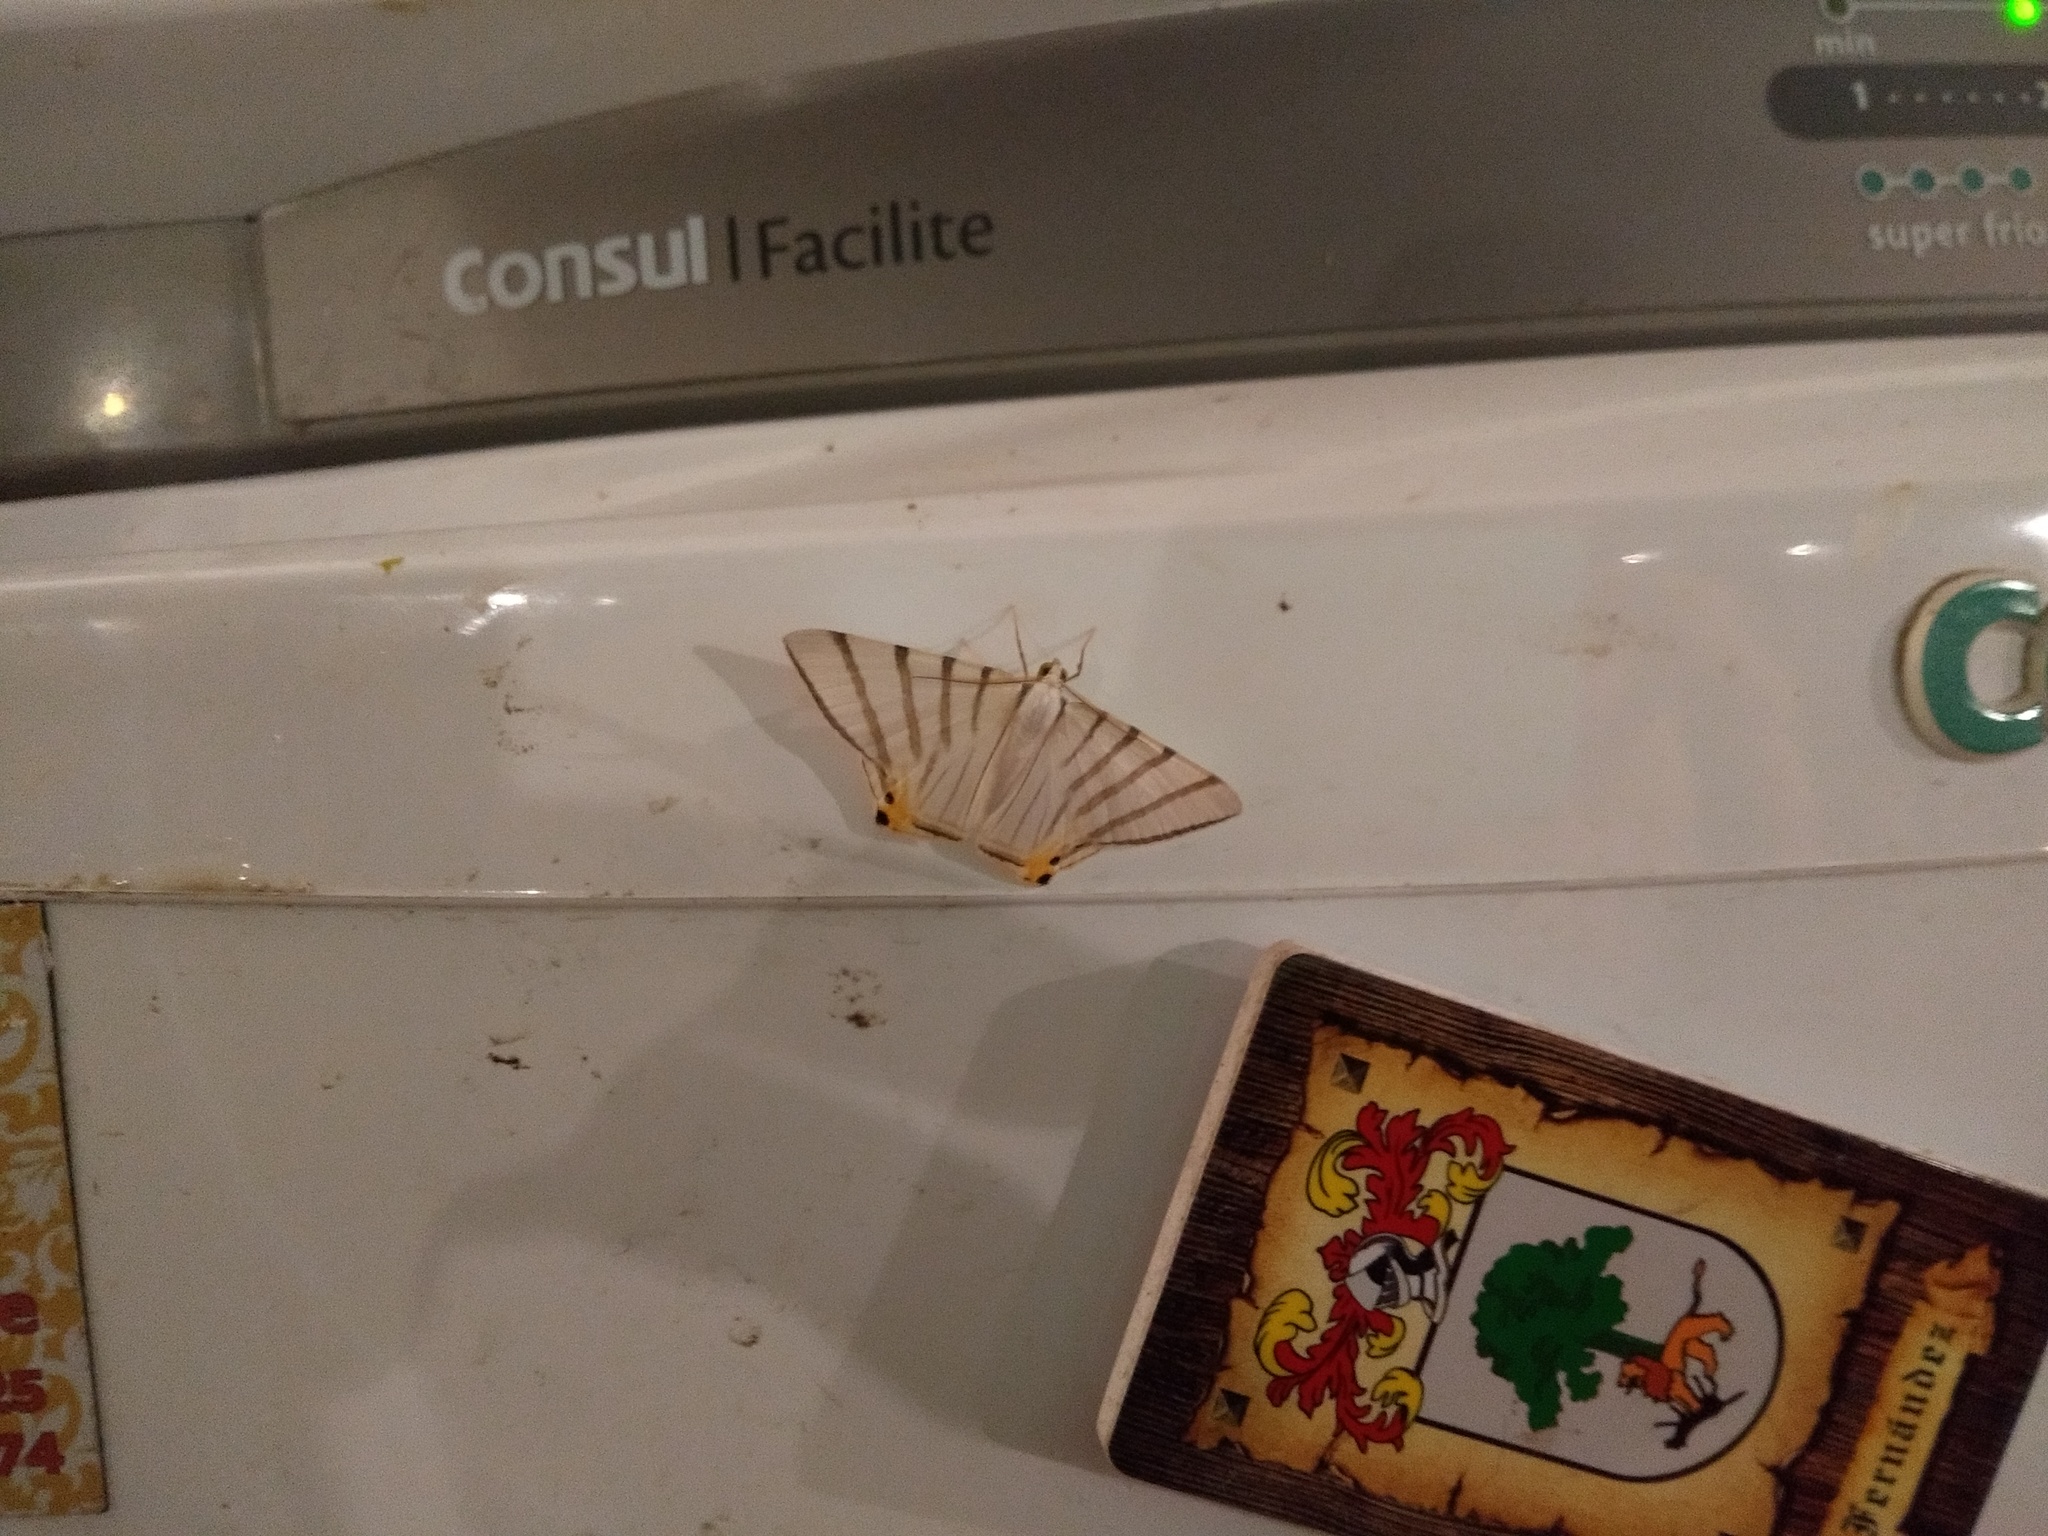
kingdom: Animalia
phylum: Arthropoda
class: Insecta
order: Lepidoptera
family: Geometridae
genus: Opisthoxia
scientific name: Opisthoxia metargyria
